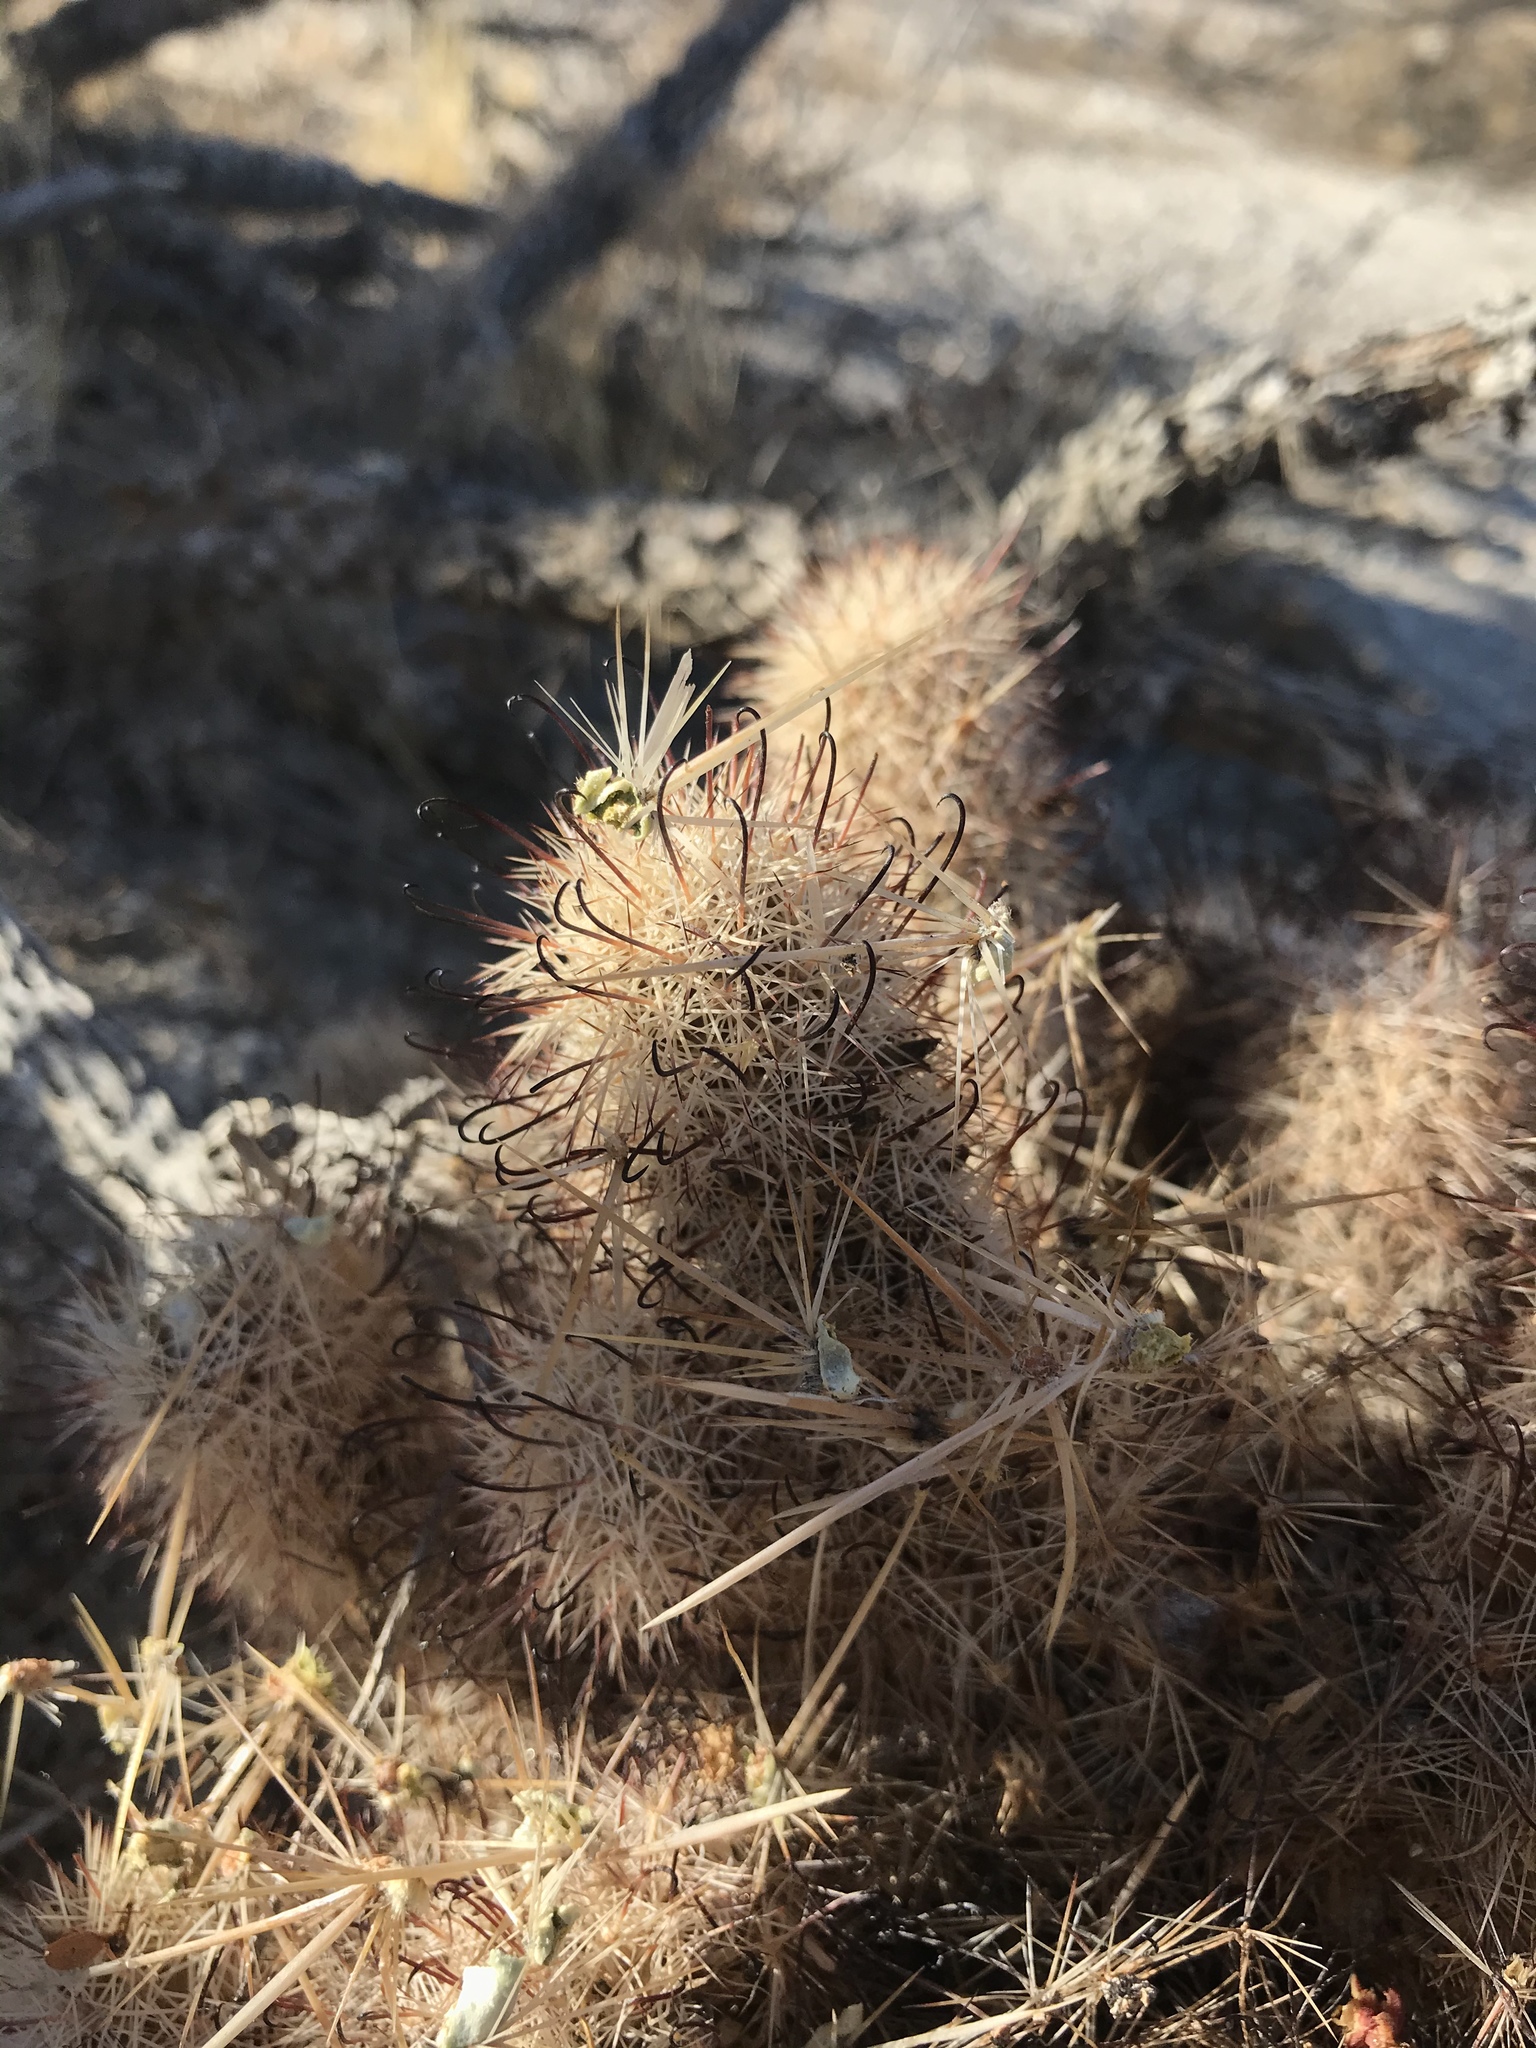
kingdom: Plantae
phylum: Tracheophyta
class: Magnoliopsida
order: Caryophyllales
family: Cactaceae
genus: Cochemiea
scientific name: Cochemiea dioica
